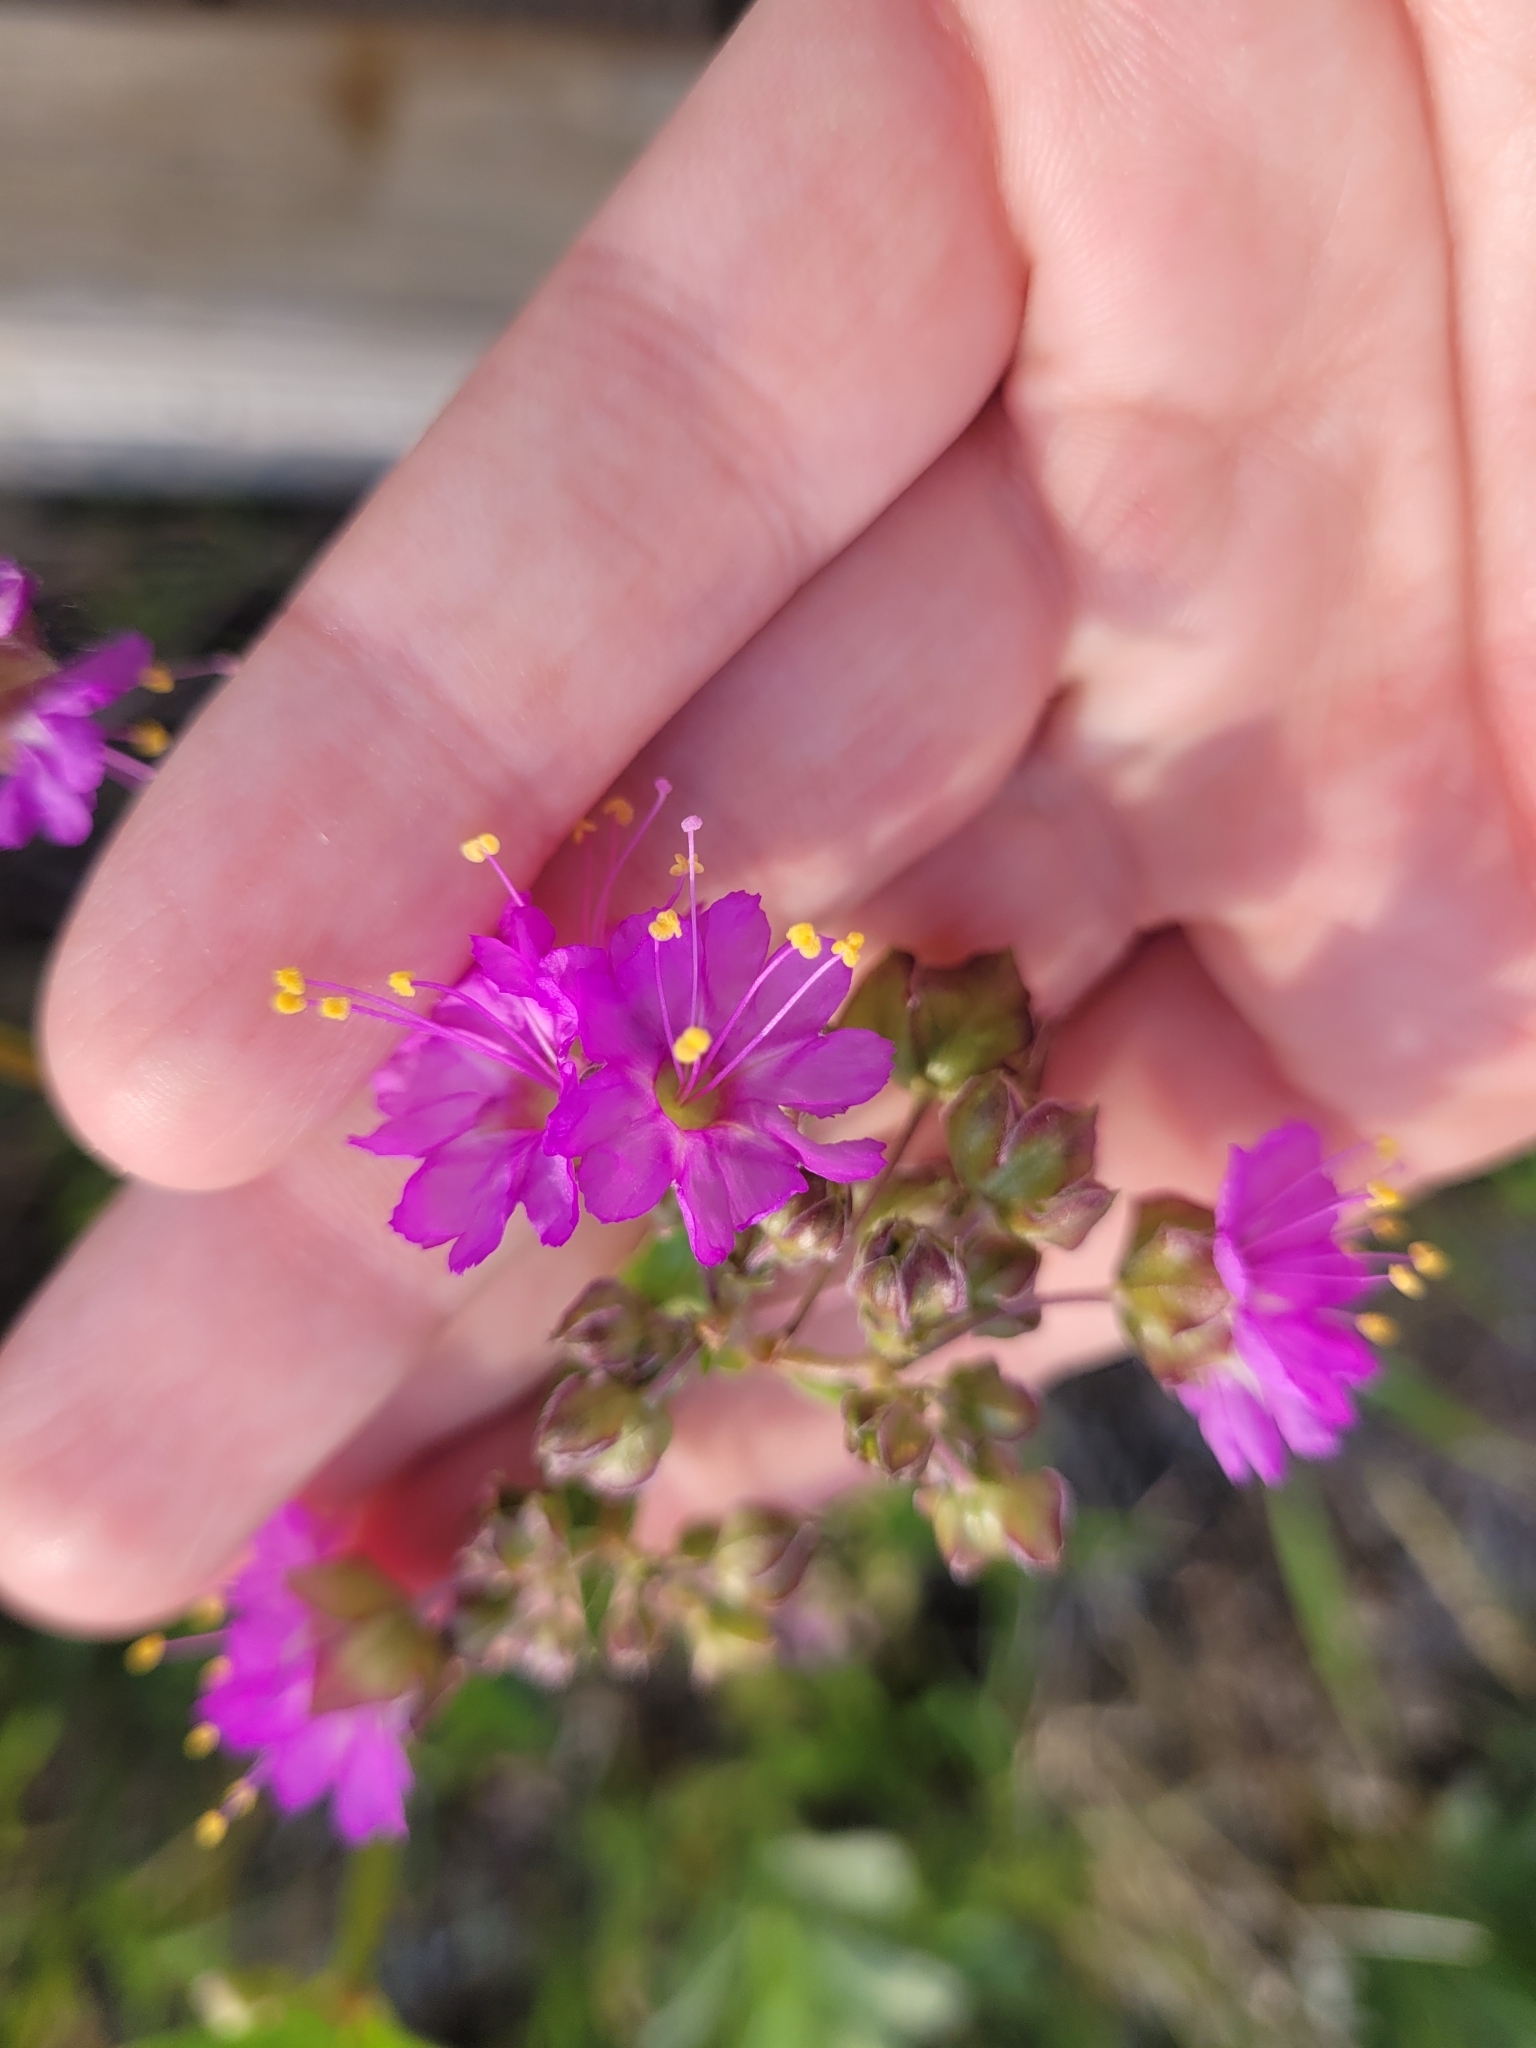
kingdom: Plantae
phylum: Tracheophyta
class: Magnoliopsida
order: Caryophyllales
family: Nyctaginaceae
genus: Mirabilis
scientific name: Mirabilis nyctaginea
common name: Umbrella wort
